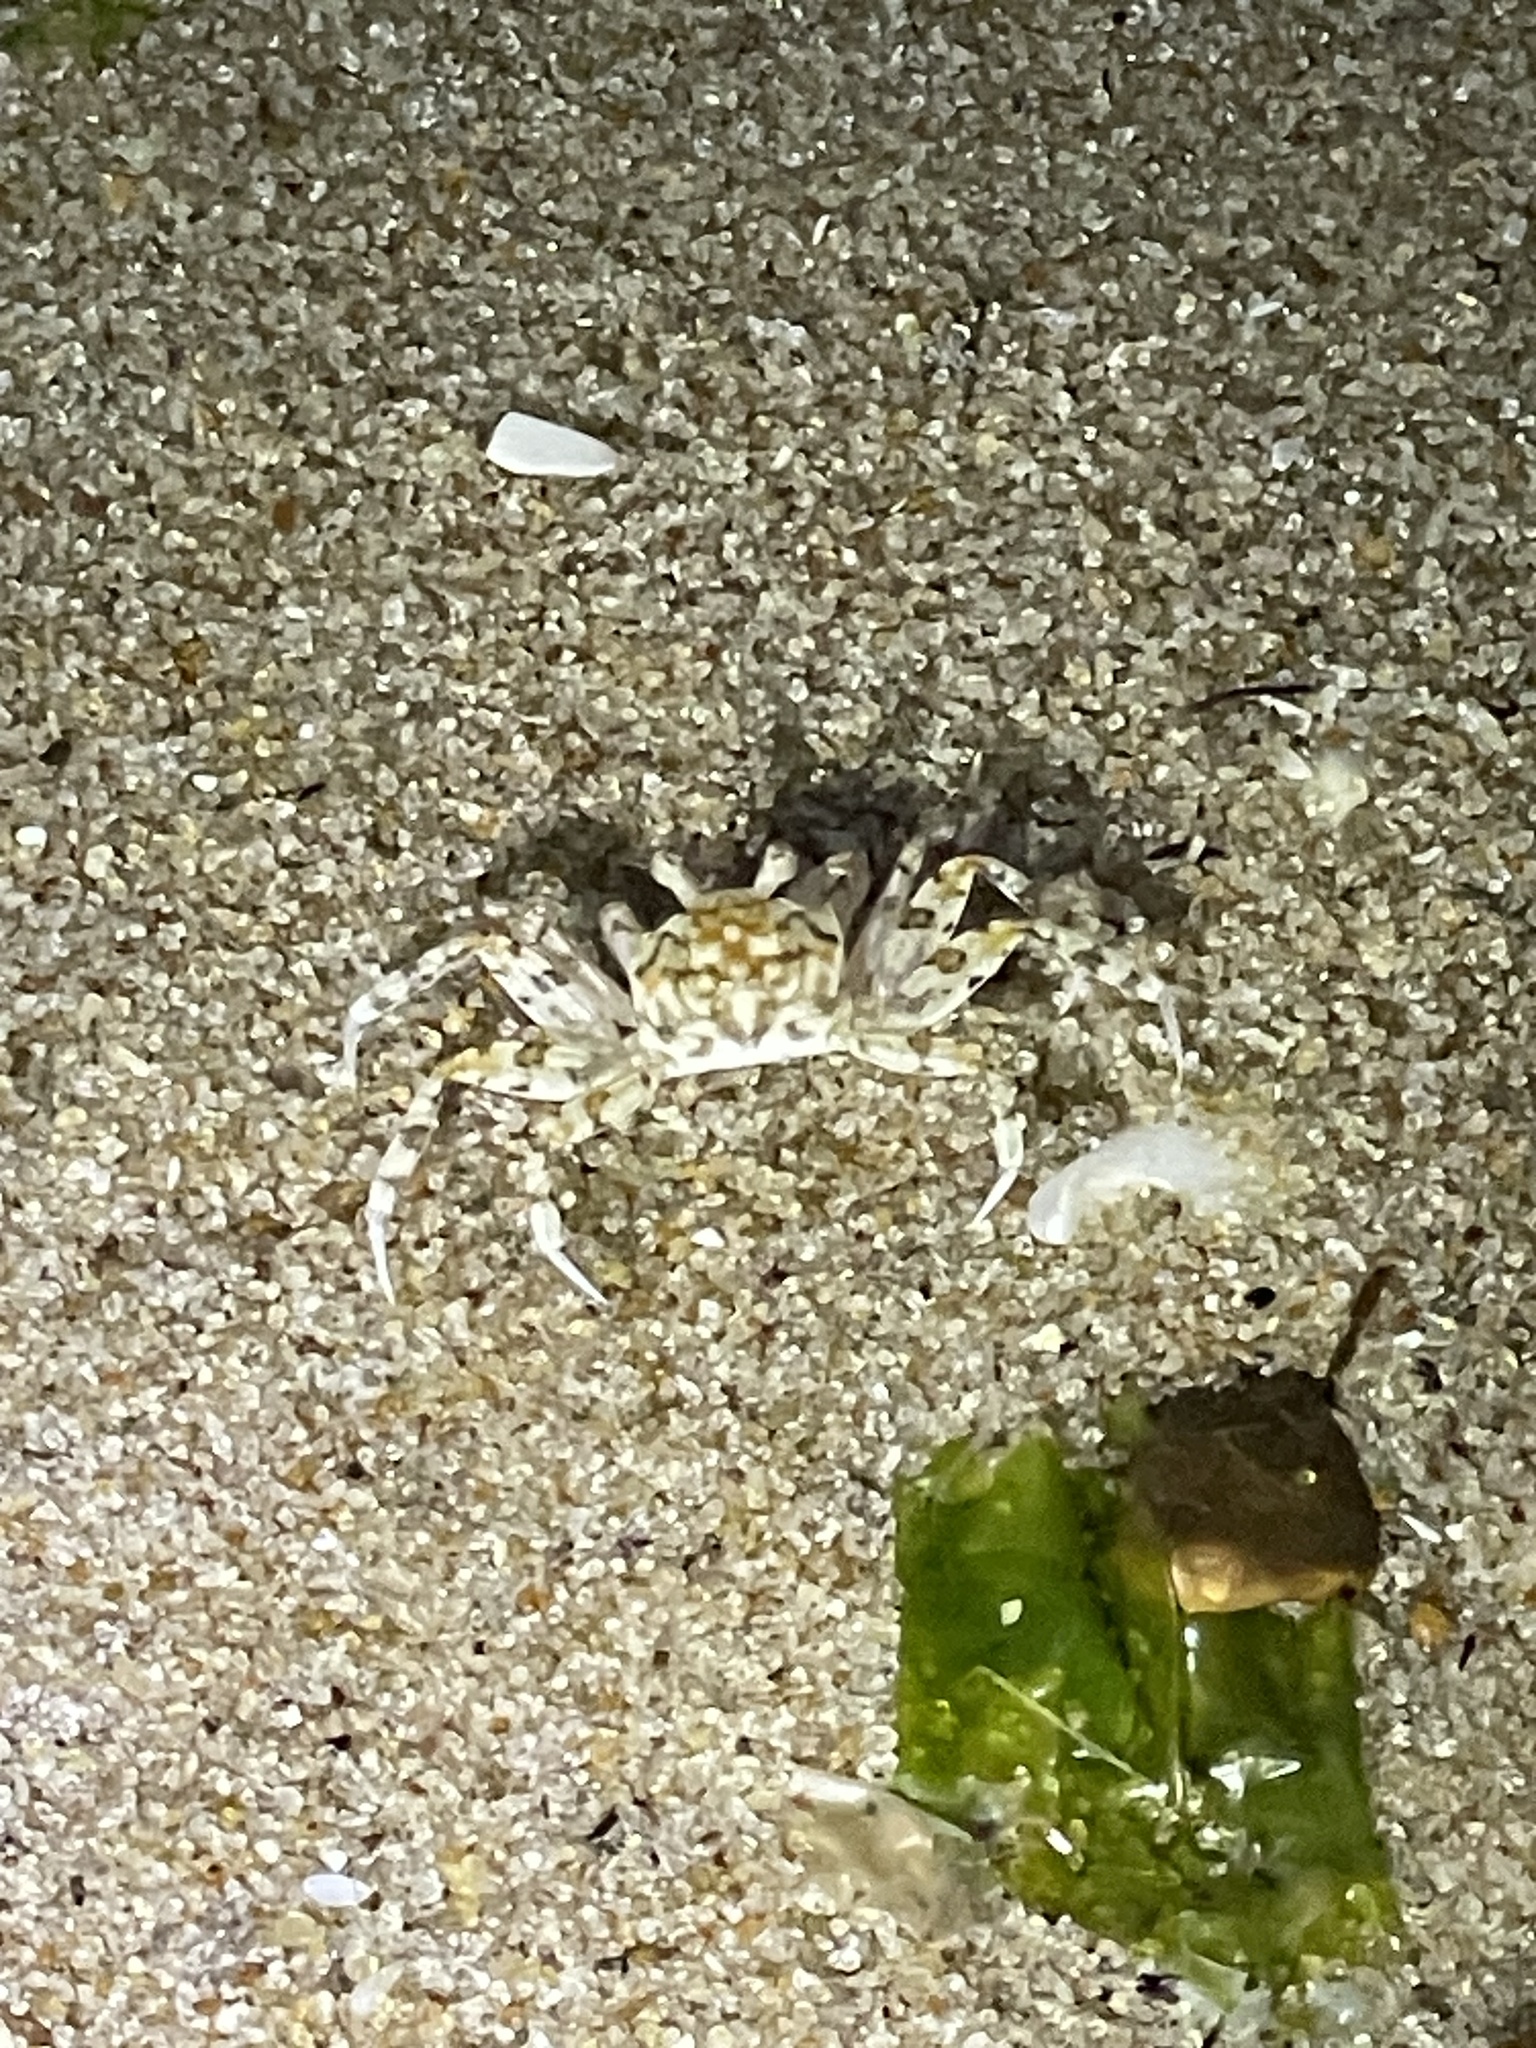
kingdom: Animalia
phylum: Arthropoda
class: Malacostraca
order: Decapoda
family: Ocypodidae
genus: Ocypode
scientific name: Ocypode quadrata
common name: Ghost crab
